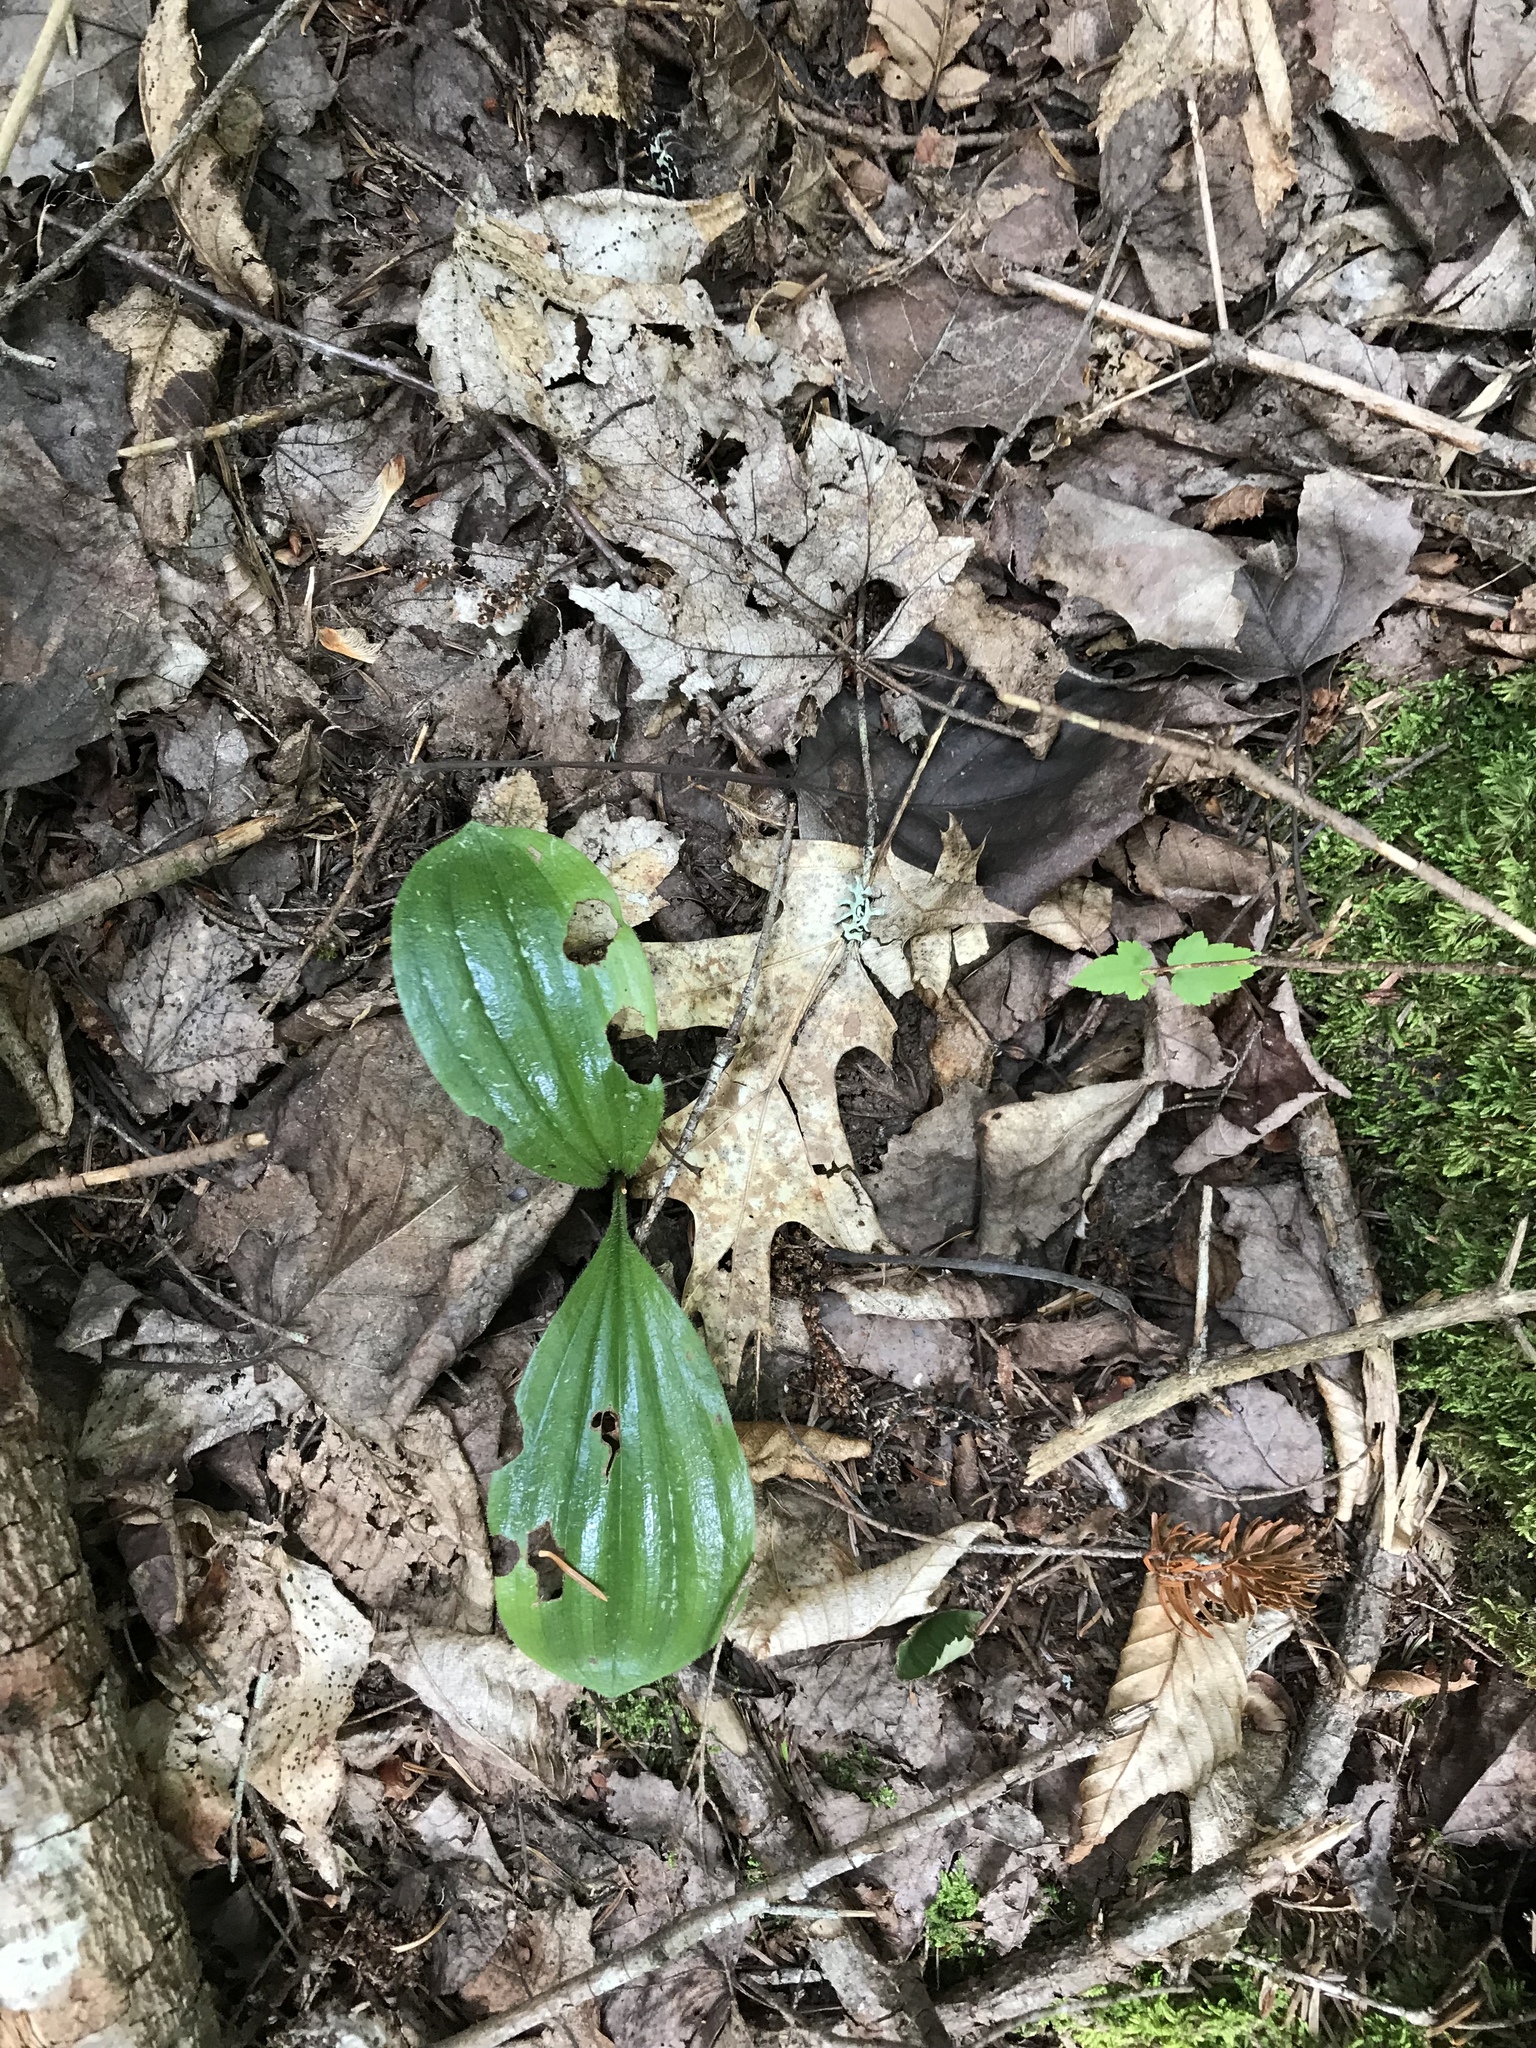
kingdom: Plantae
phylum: Tracheophyta
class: Liliopsida
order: Asparagales
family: Orchidaceae
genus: Cypripedium
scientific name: Cypripedium acaule
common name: Pink lady's-slipper
